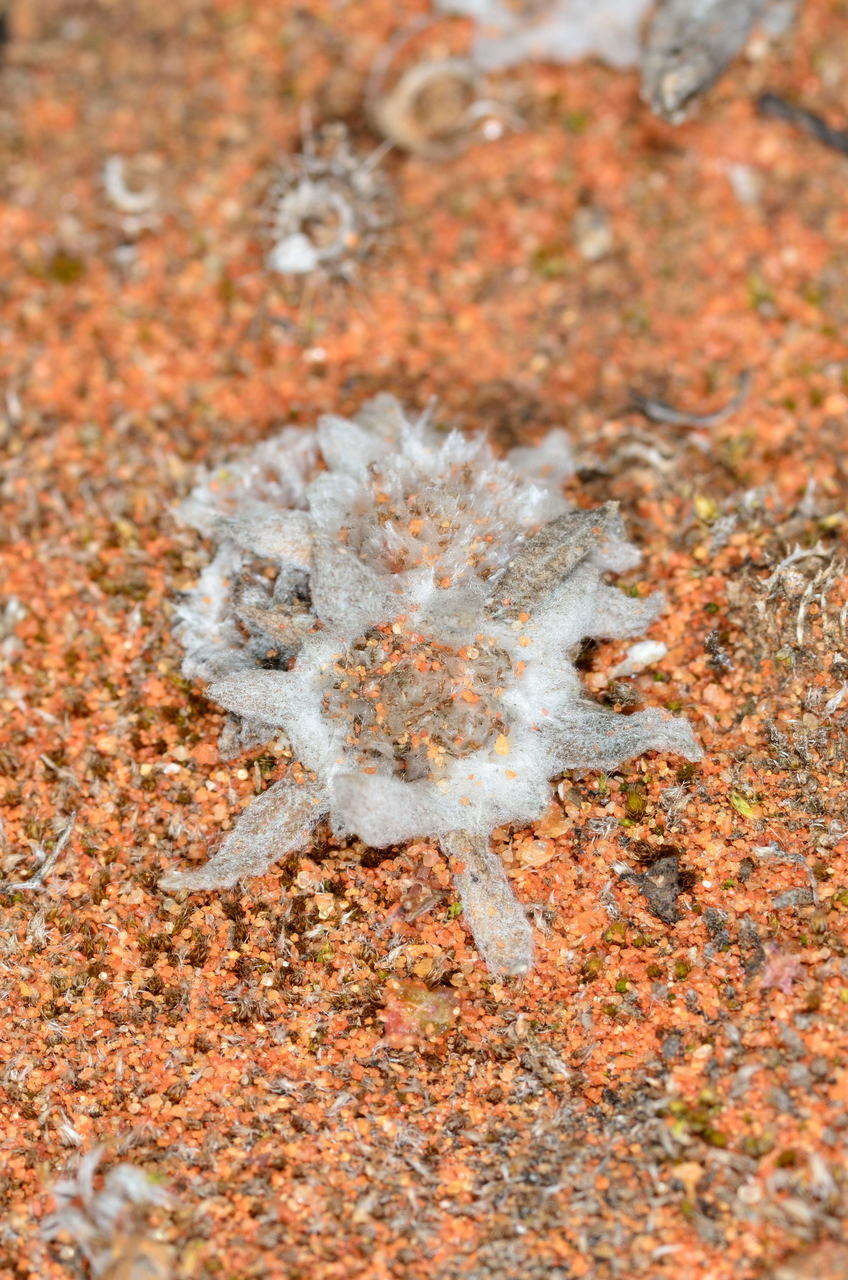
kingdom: Plantae
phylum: Tracheophyta
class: Magnoliopsida
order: Asterales
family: Asteraceae
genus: Chthonocephalus
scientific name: Chthonocephalus pseudevax
